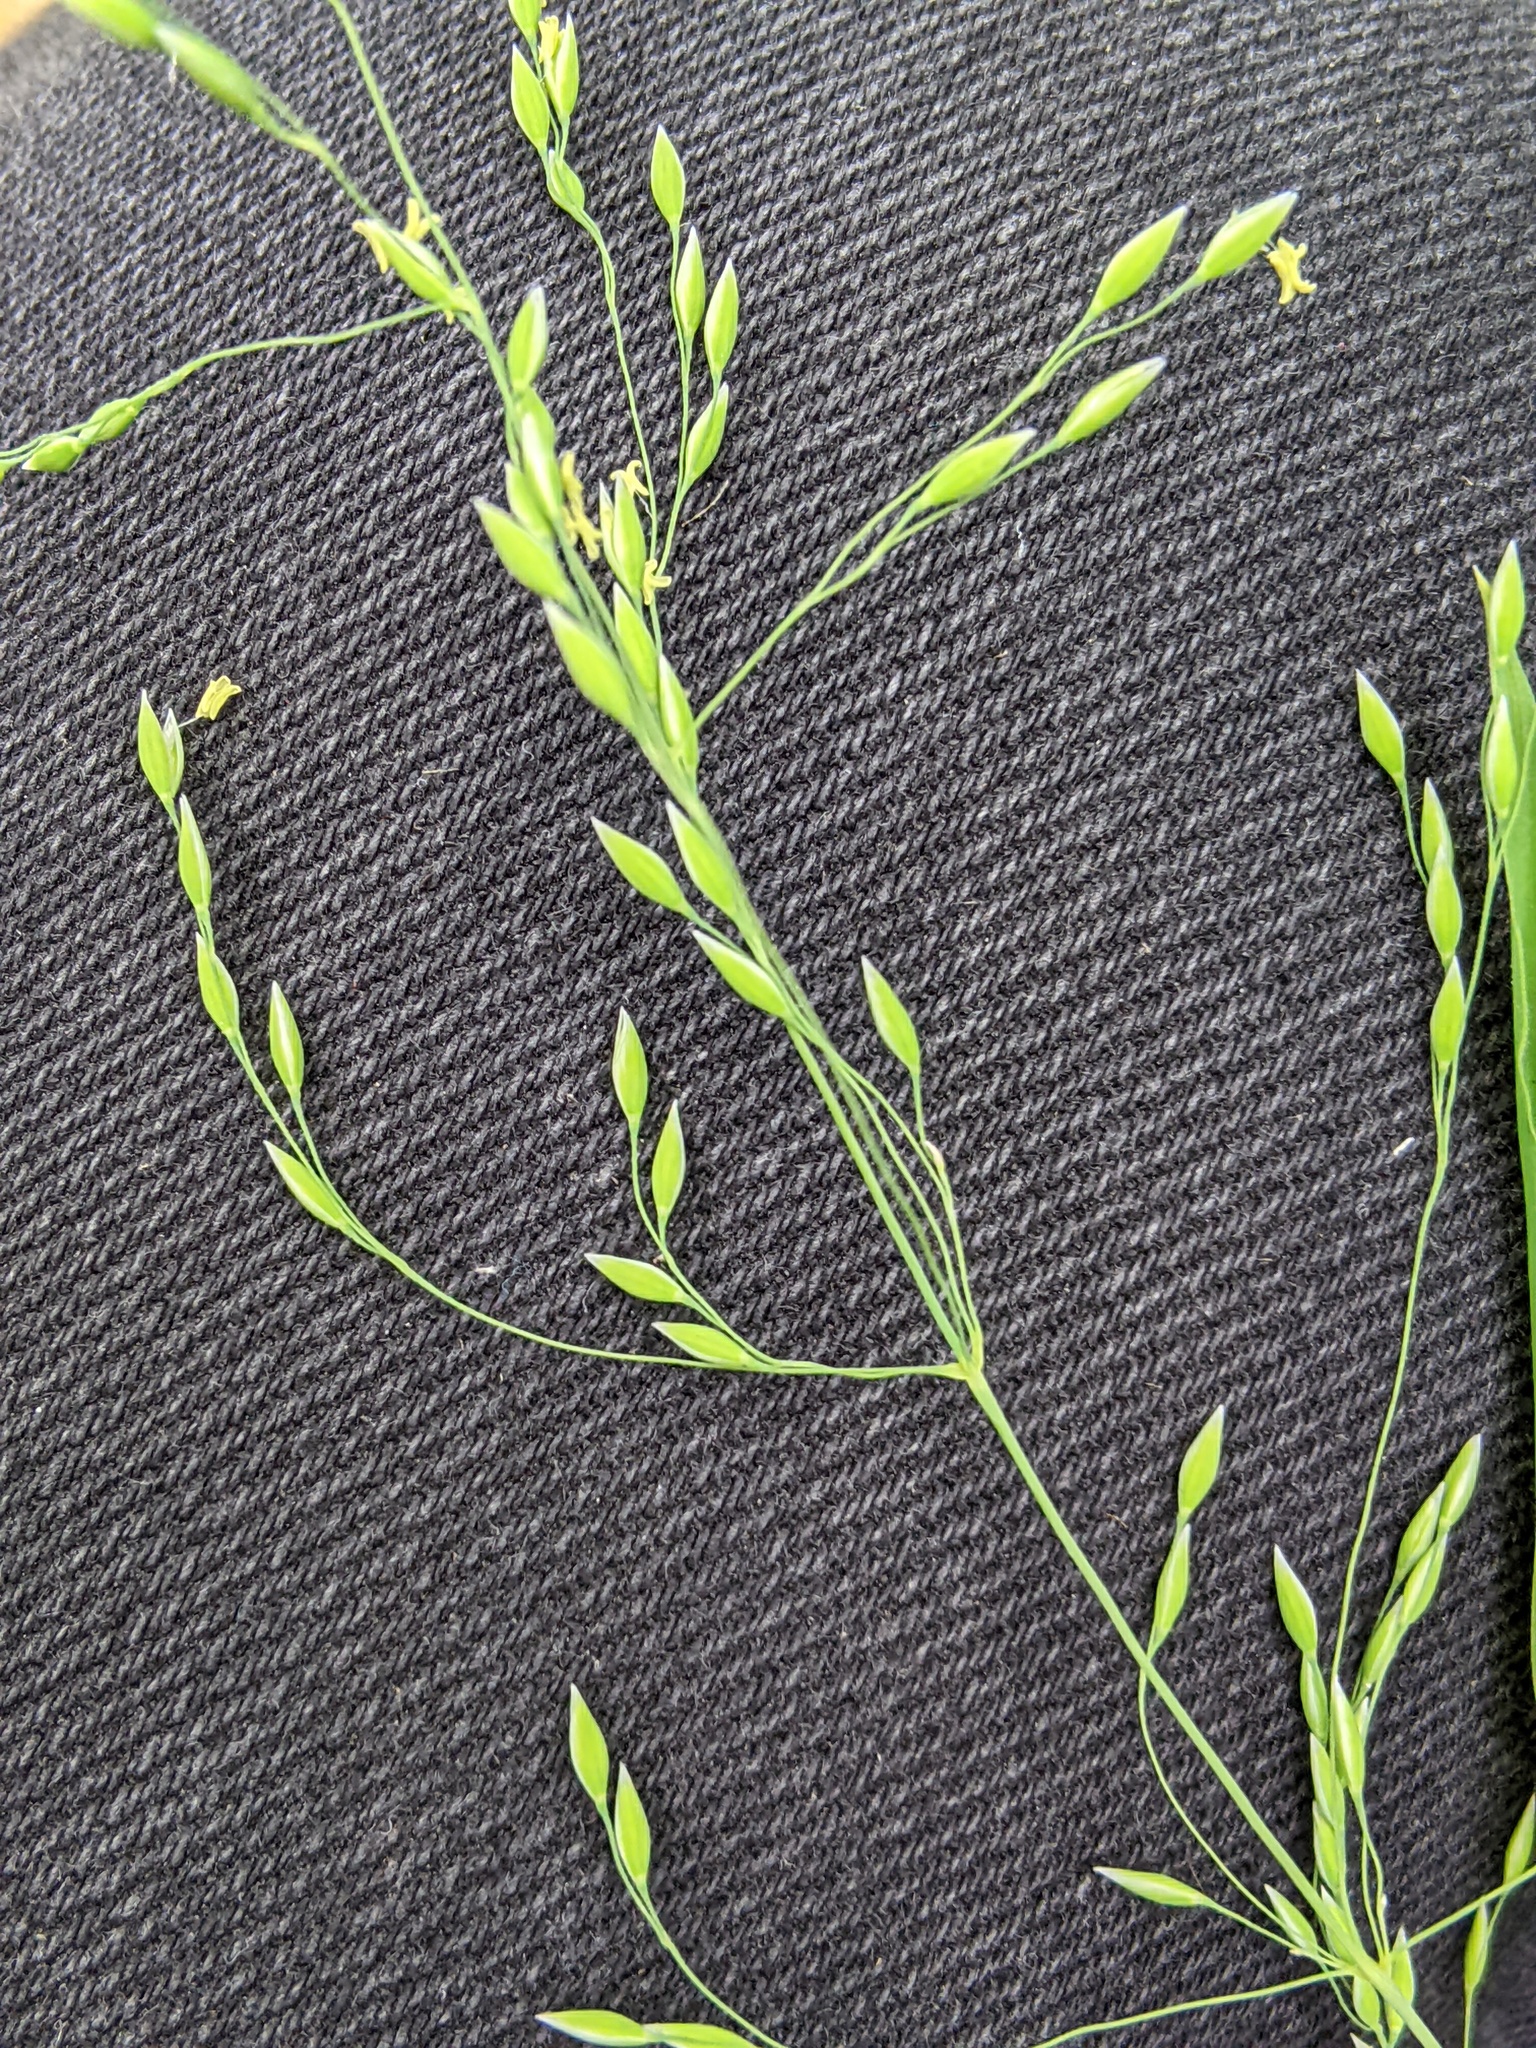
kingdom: Plantae
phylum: Tracheophyta
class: Liliopsida
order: Poales
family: Poaceae
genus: Milium
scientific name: Milium effusum
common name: Wood millet
